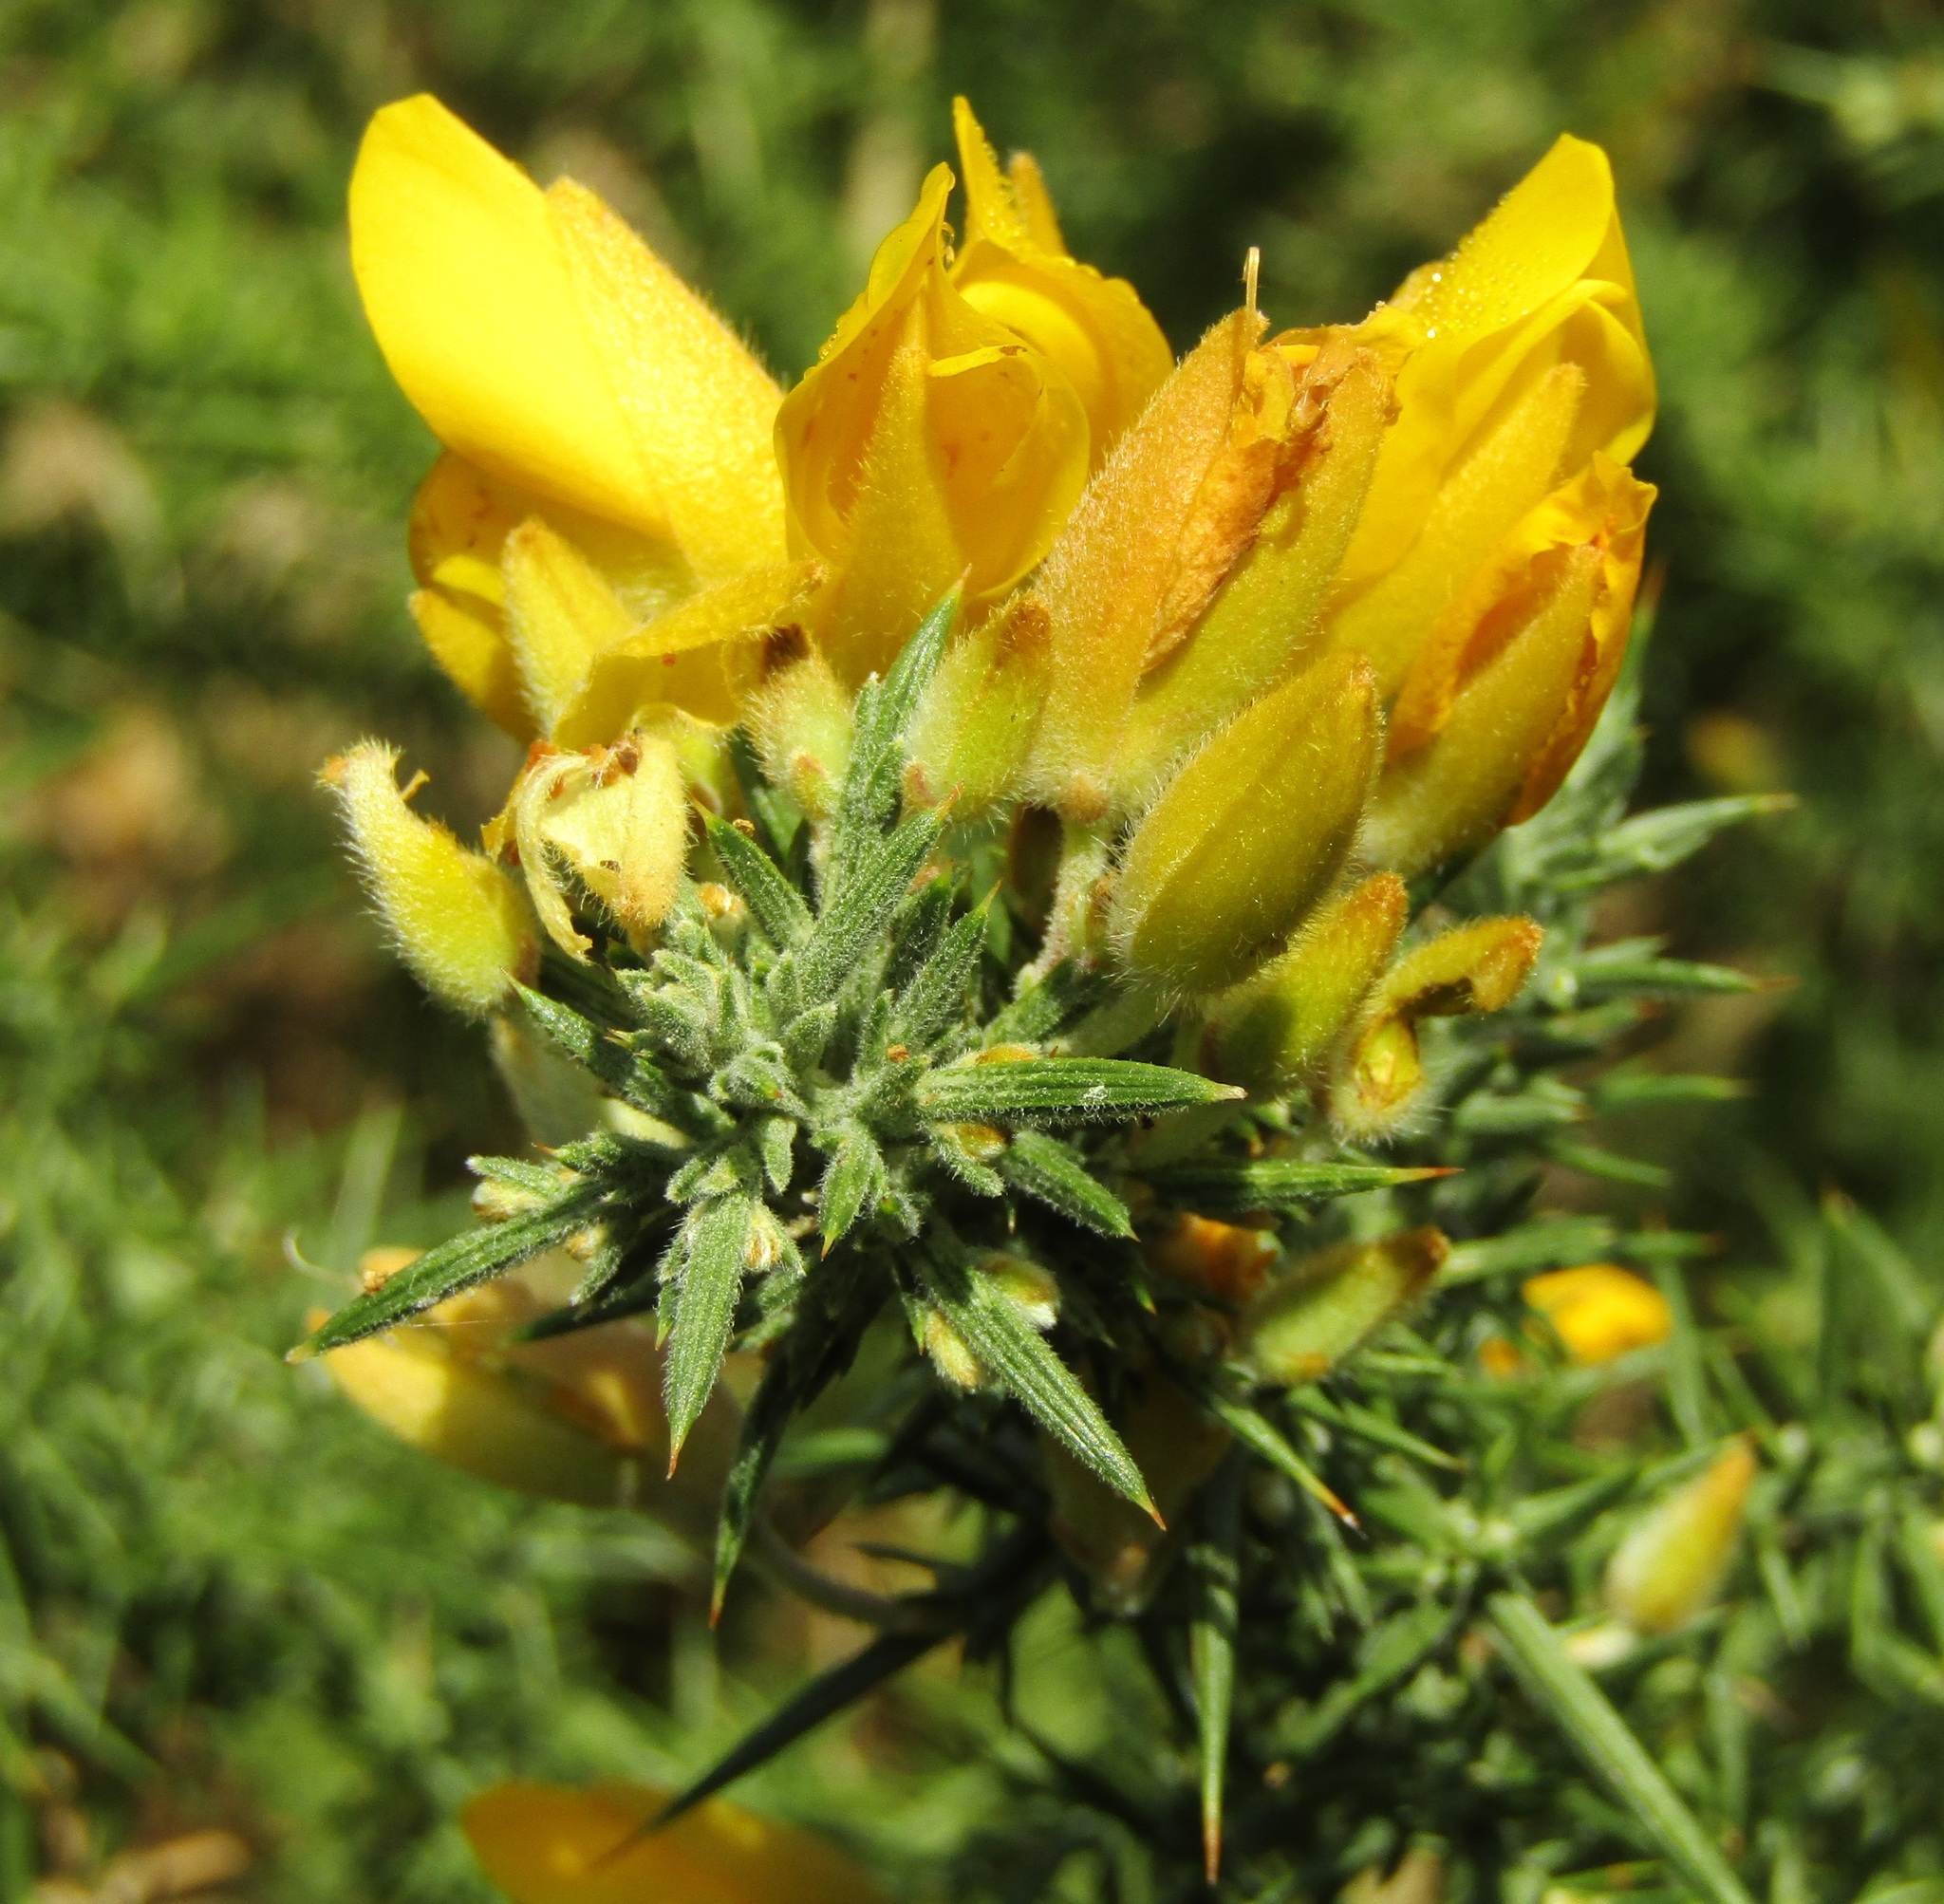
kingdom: Plantae
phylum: Tracheophyta
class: Magnoliopsida
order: Fabales
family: Fabaceae
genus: Ulex
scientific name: Ulex europaeus
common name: Common gorse
